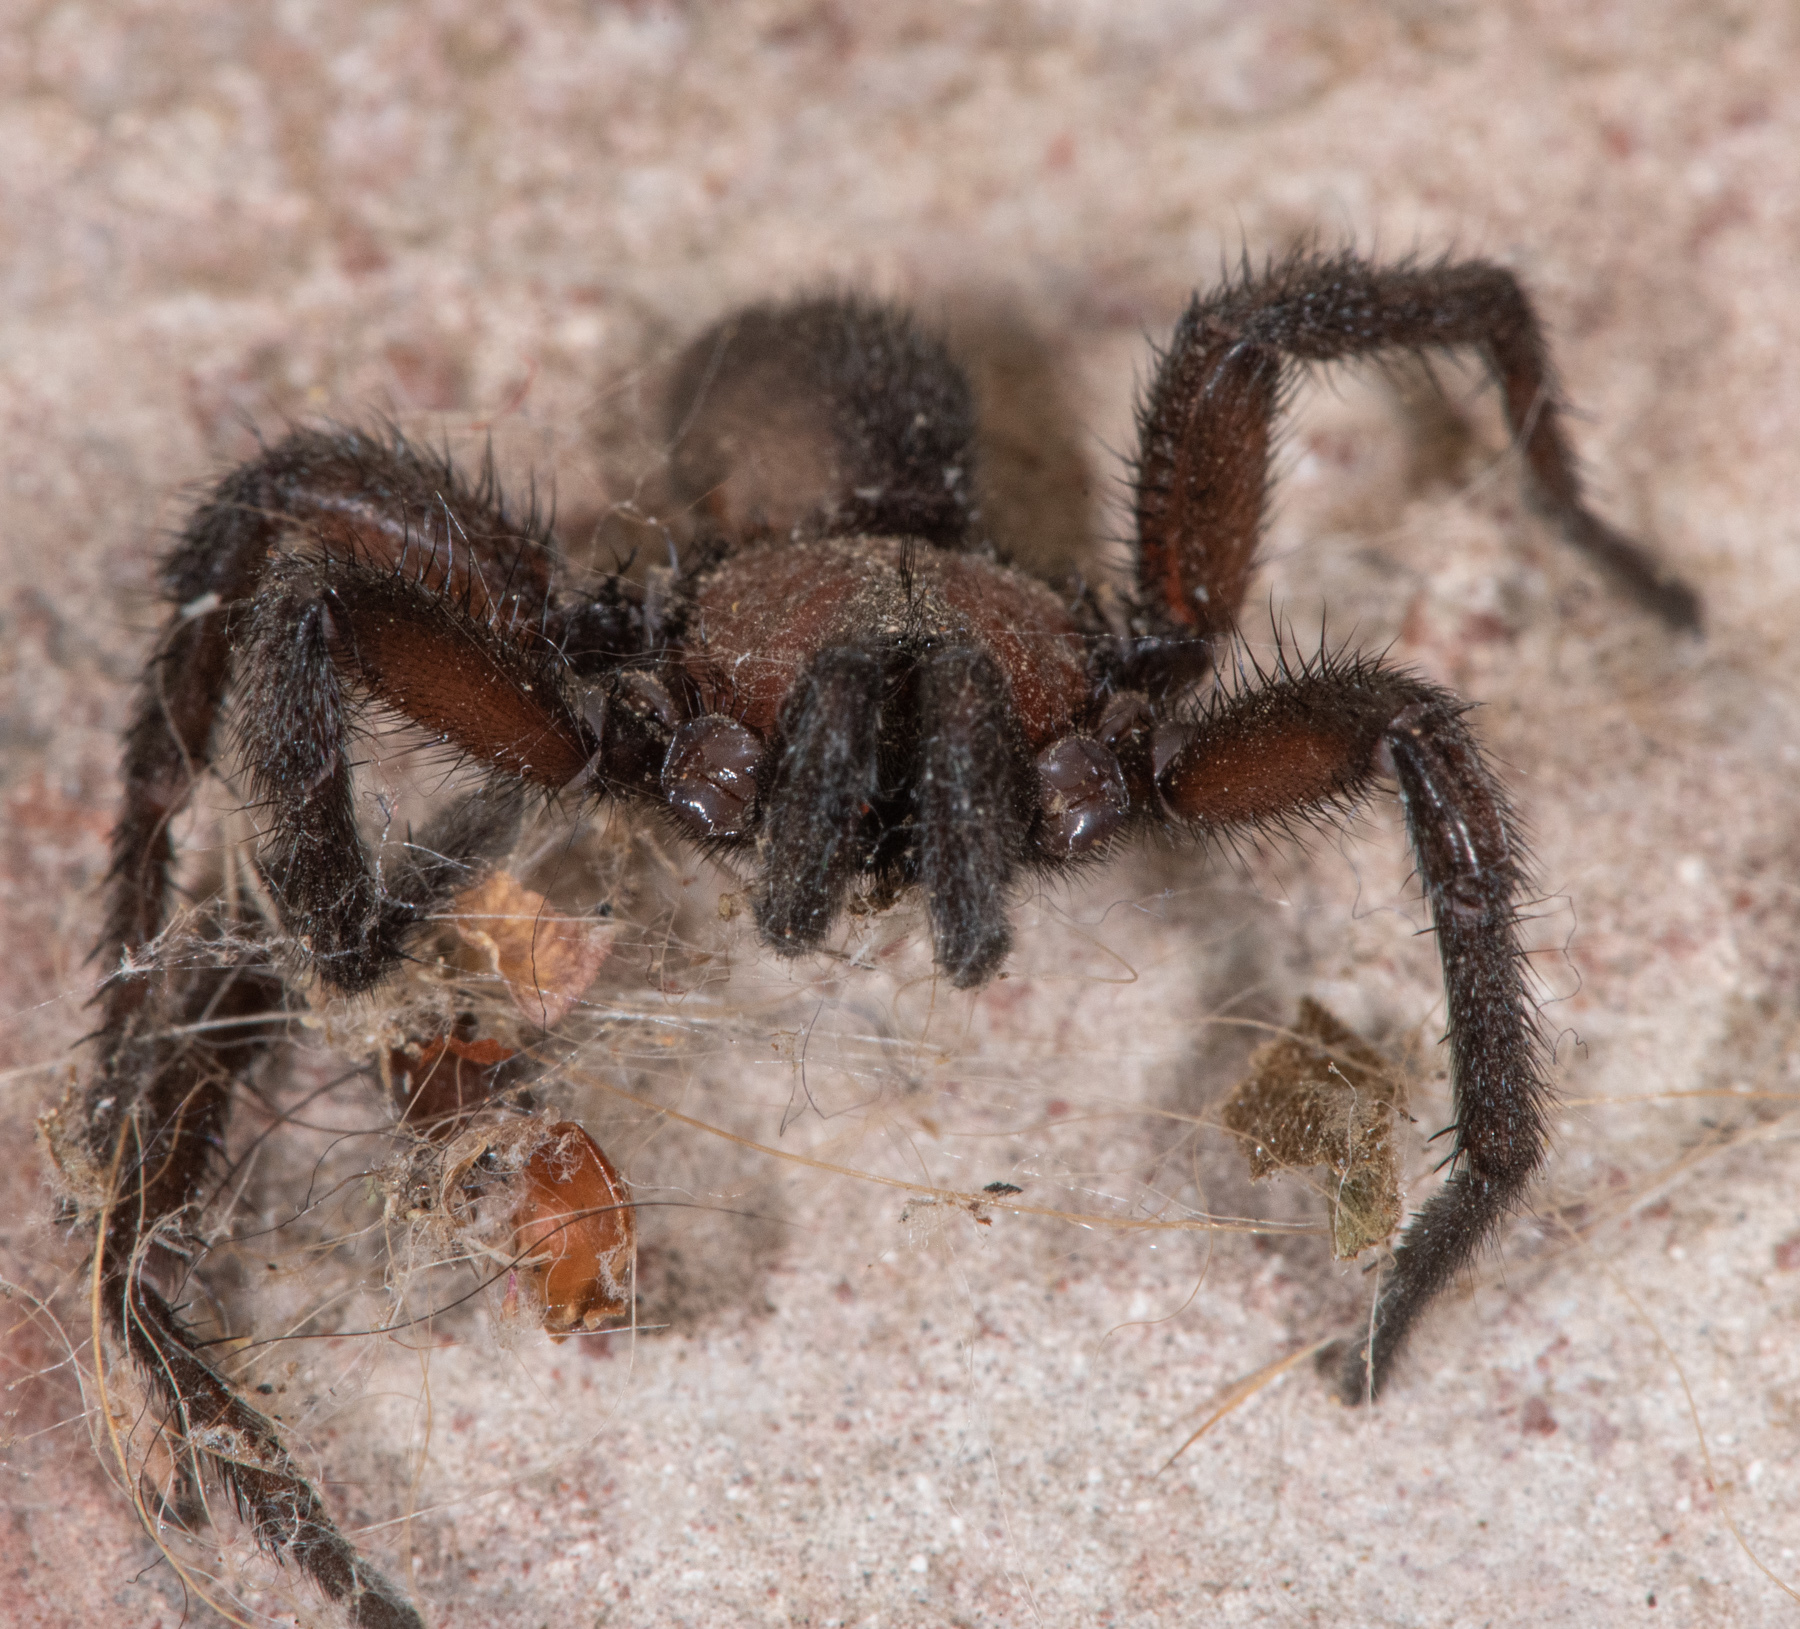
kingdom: Animalia
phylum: Arthropoda
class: Arachnida
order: Araneae
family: Euctenizidae
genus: Promyrmekiaphila
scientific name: Promyrmekiaphila clathrata
